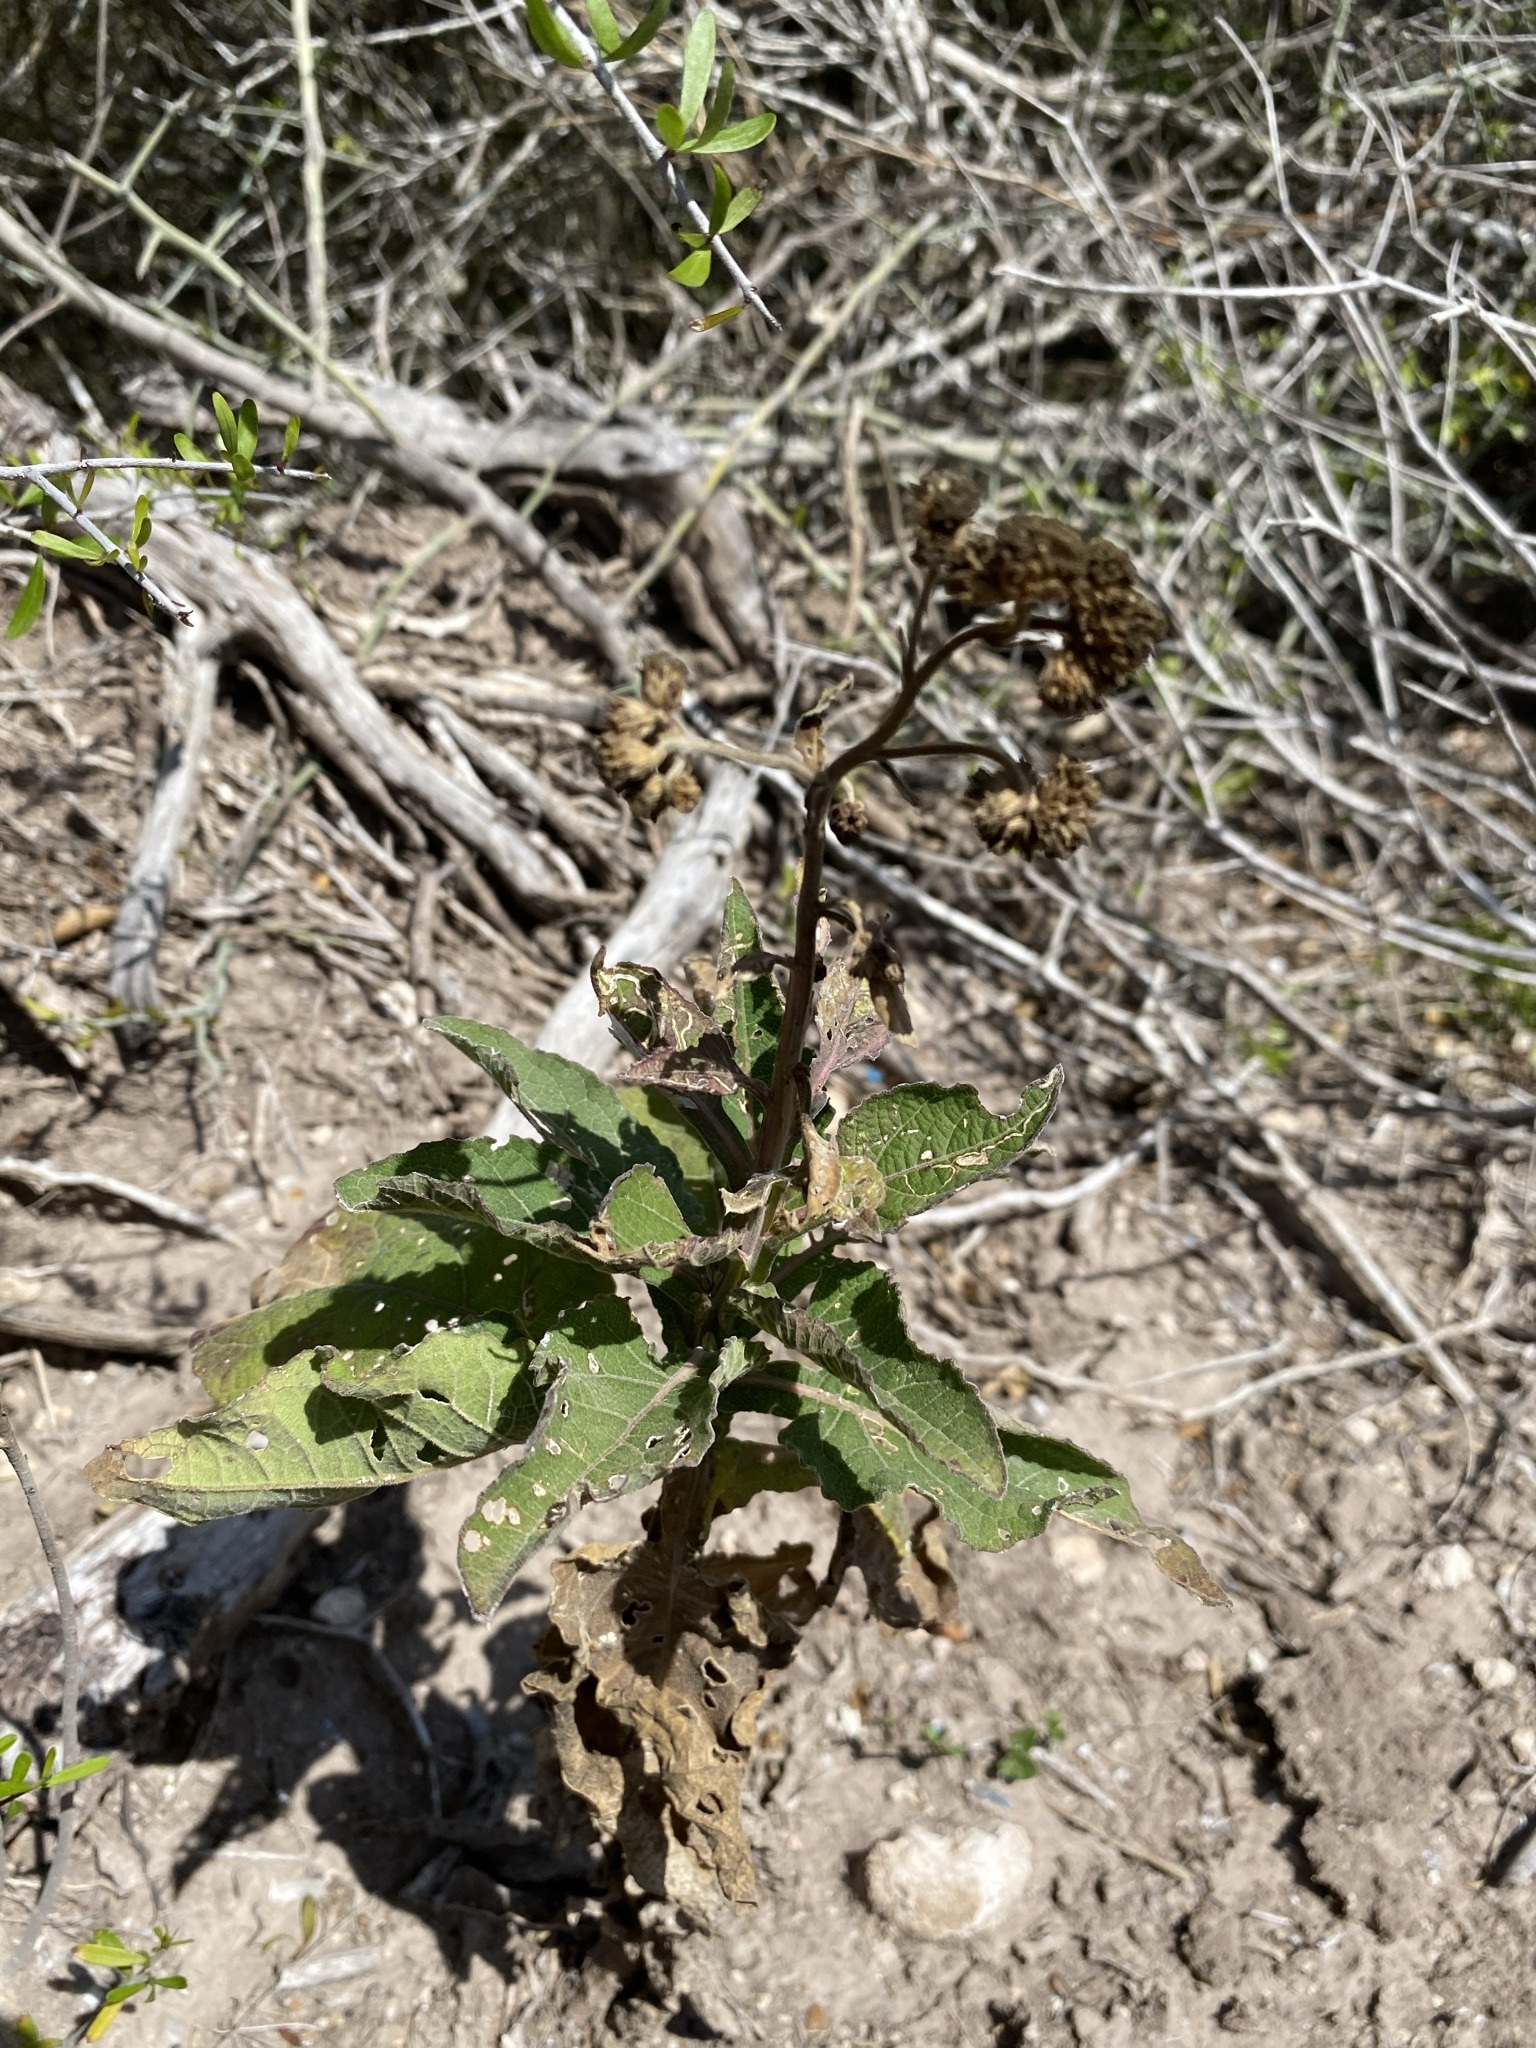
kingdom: Plantae
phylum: Tracheophyta
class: Magnoliopsida
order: Asterales
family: Asteraceae
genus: Verbesina
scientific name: Verbesina microptera
